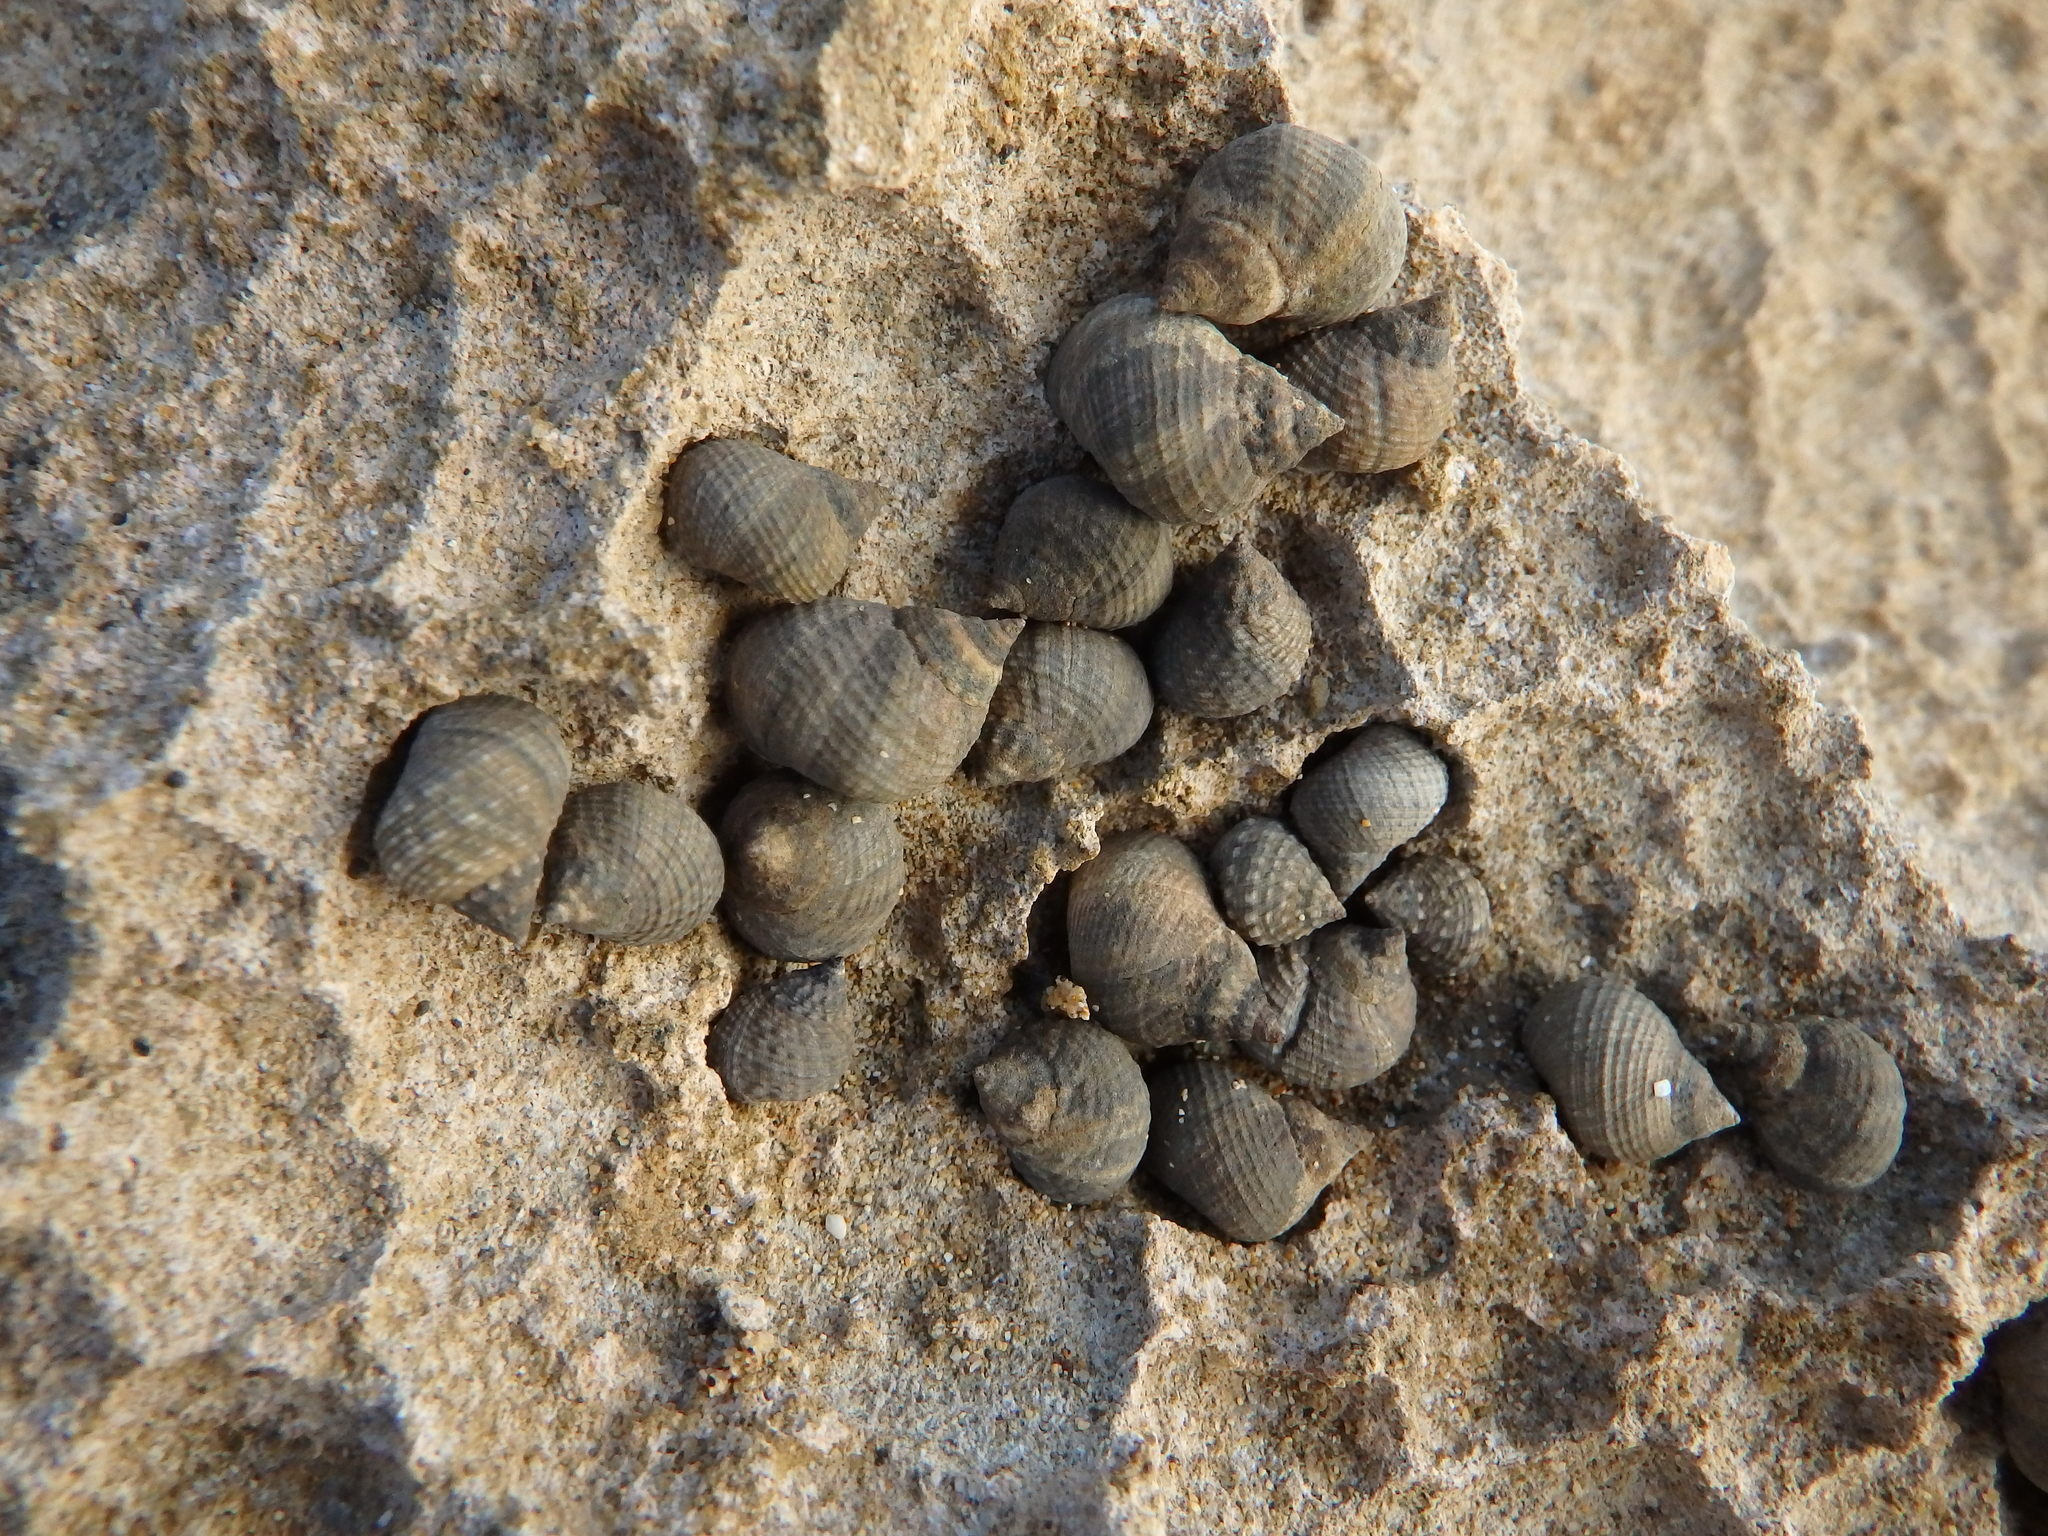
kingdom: Animalia
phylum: Mollusca
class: Gastropoda
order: Littorinimorpha
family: Littorinidae
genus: Tectarius
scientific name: Tectarius striatus
